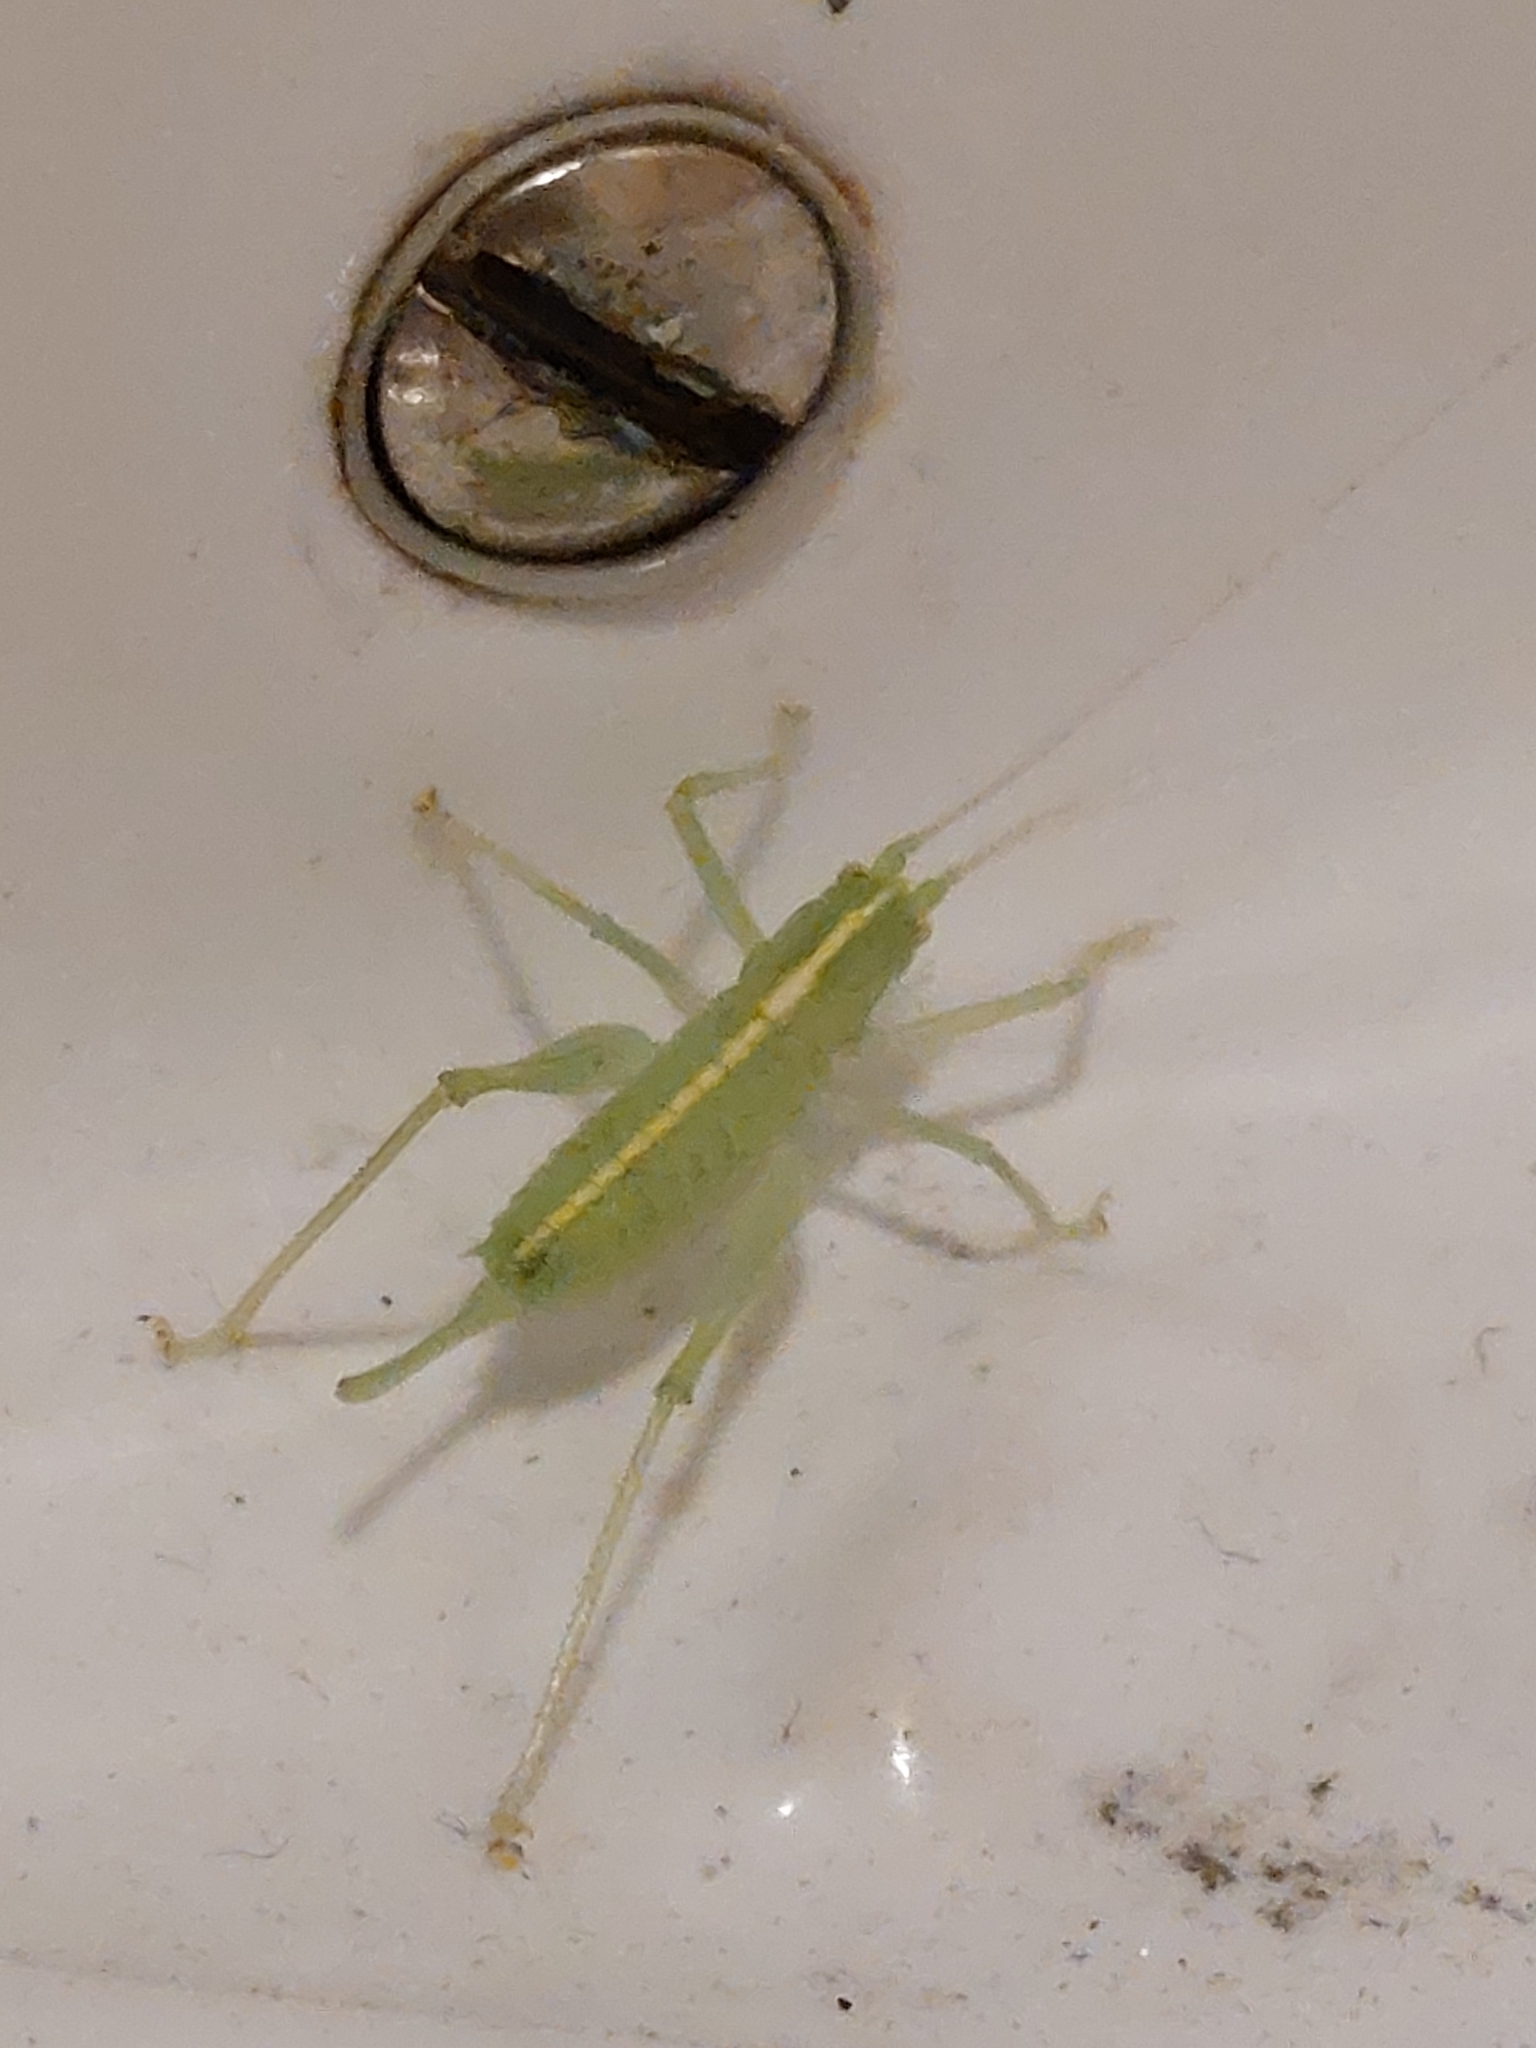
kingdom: Animalia
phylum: Arthropoda
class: Insecta
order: Orthoptera
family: Tettigoniidae
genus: Meconema
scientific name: Meconema meridionale
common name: Southern oak bush-cricket
